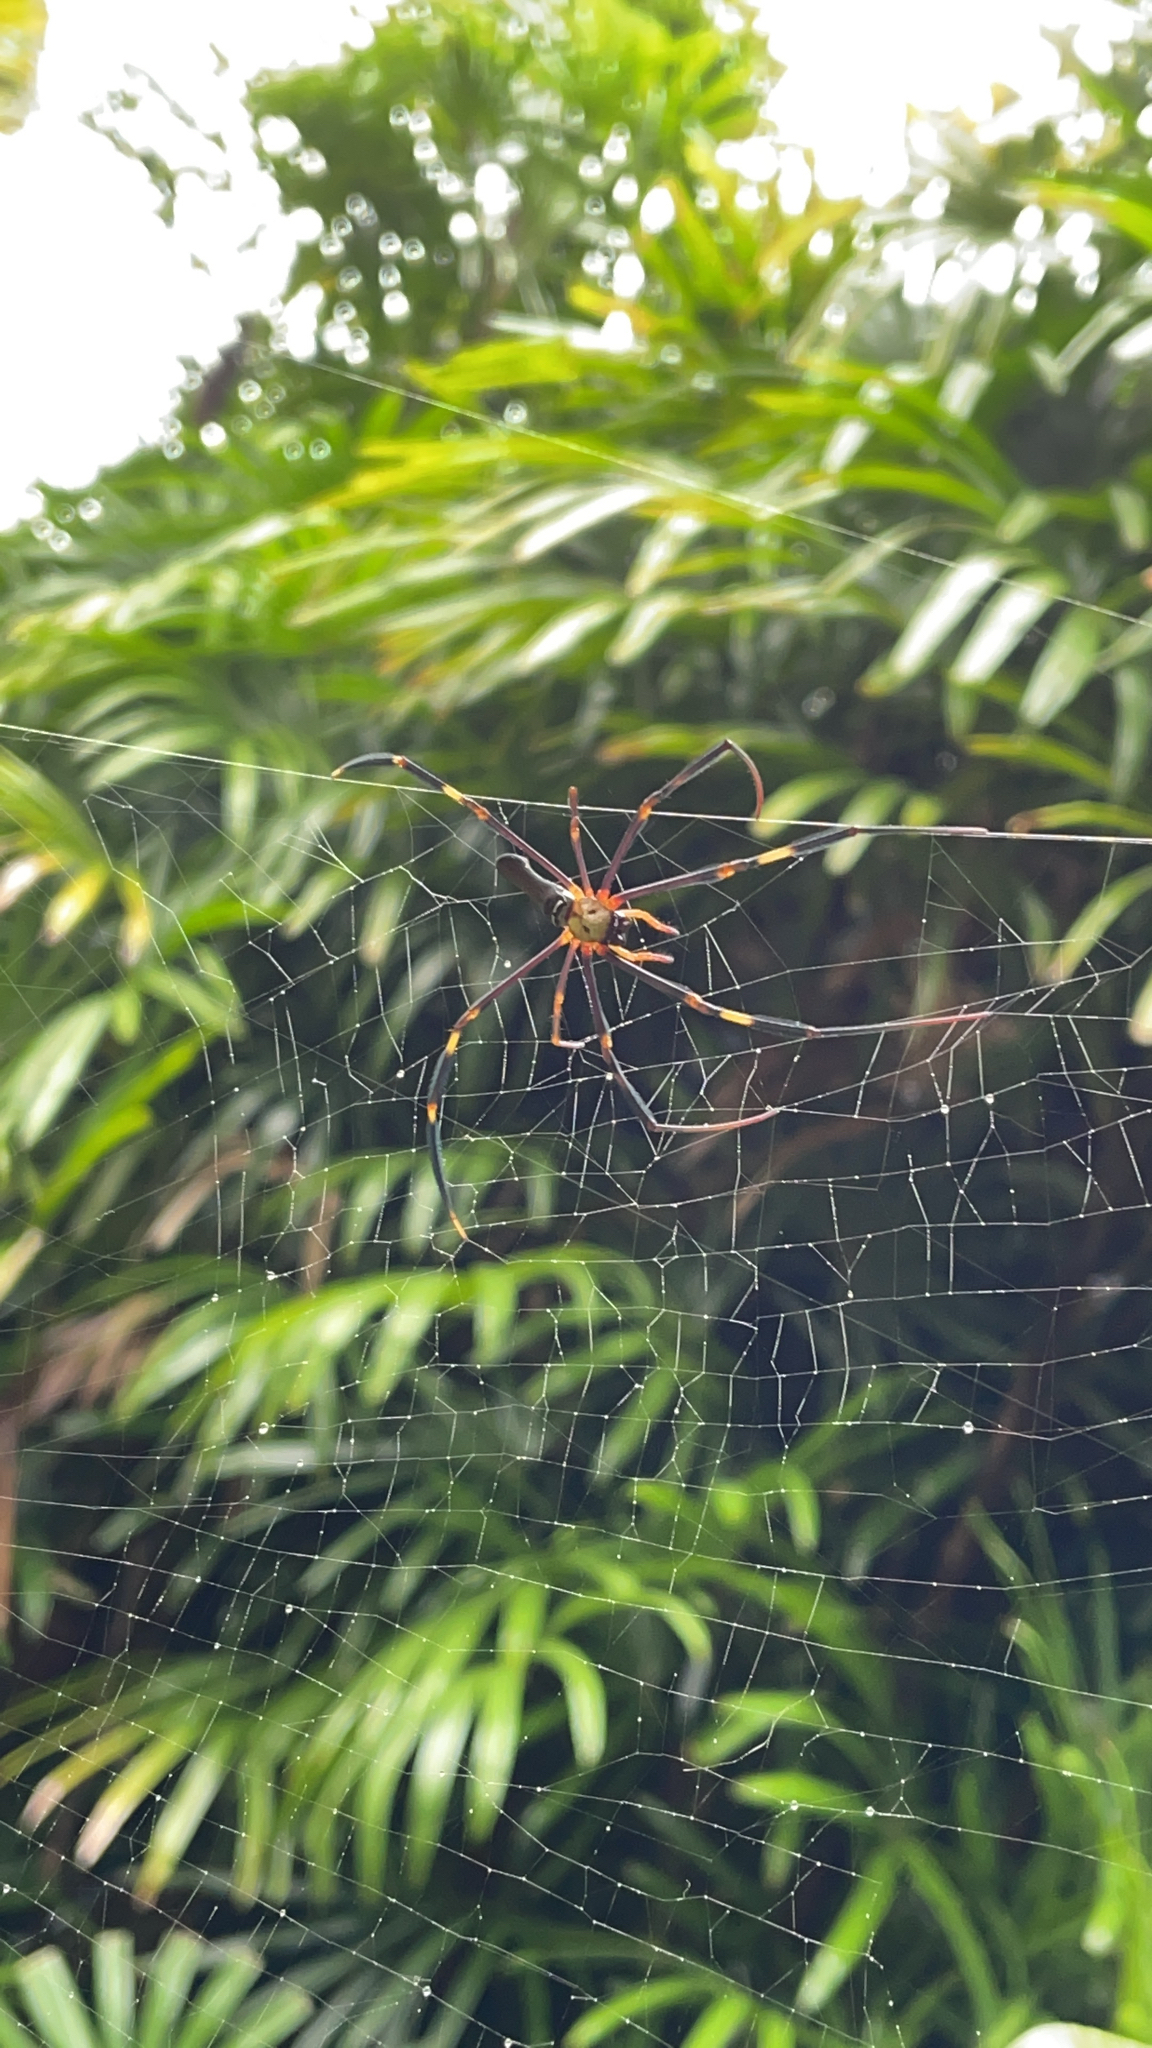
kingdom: Animalia
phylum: Arthropoda
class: Arachnida
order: Araneae
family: Araneidae
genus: Nephila
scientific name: Nephila pilipes
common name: Giant golden orb weaver
